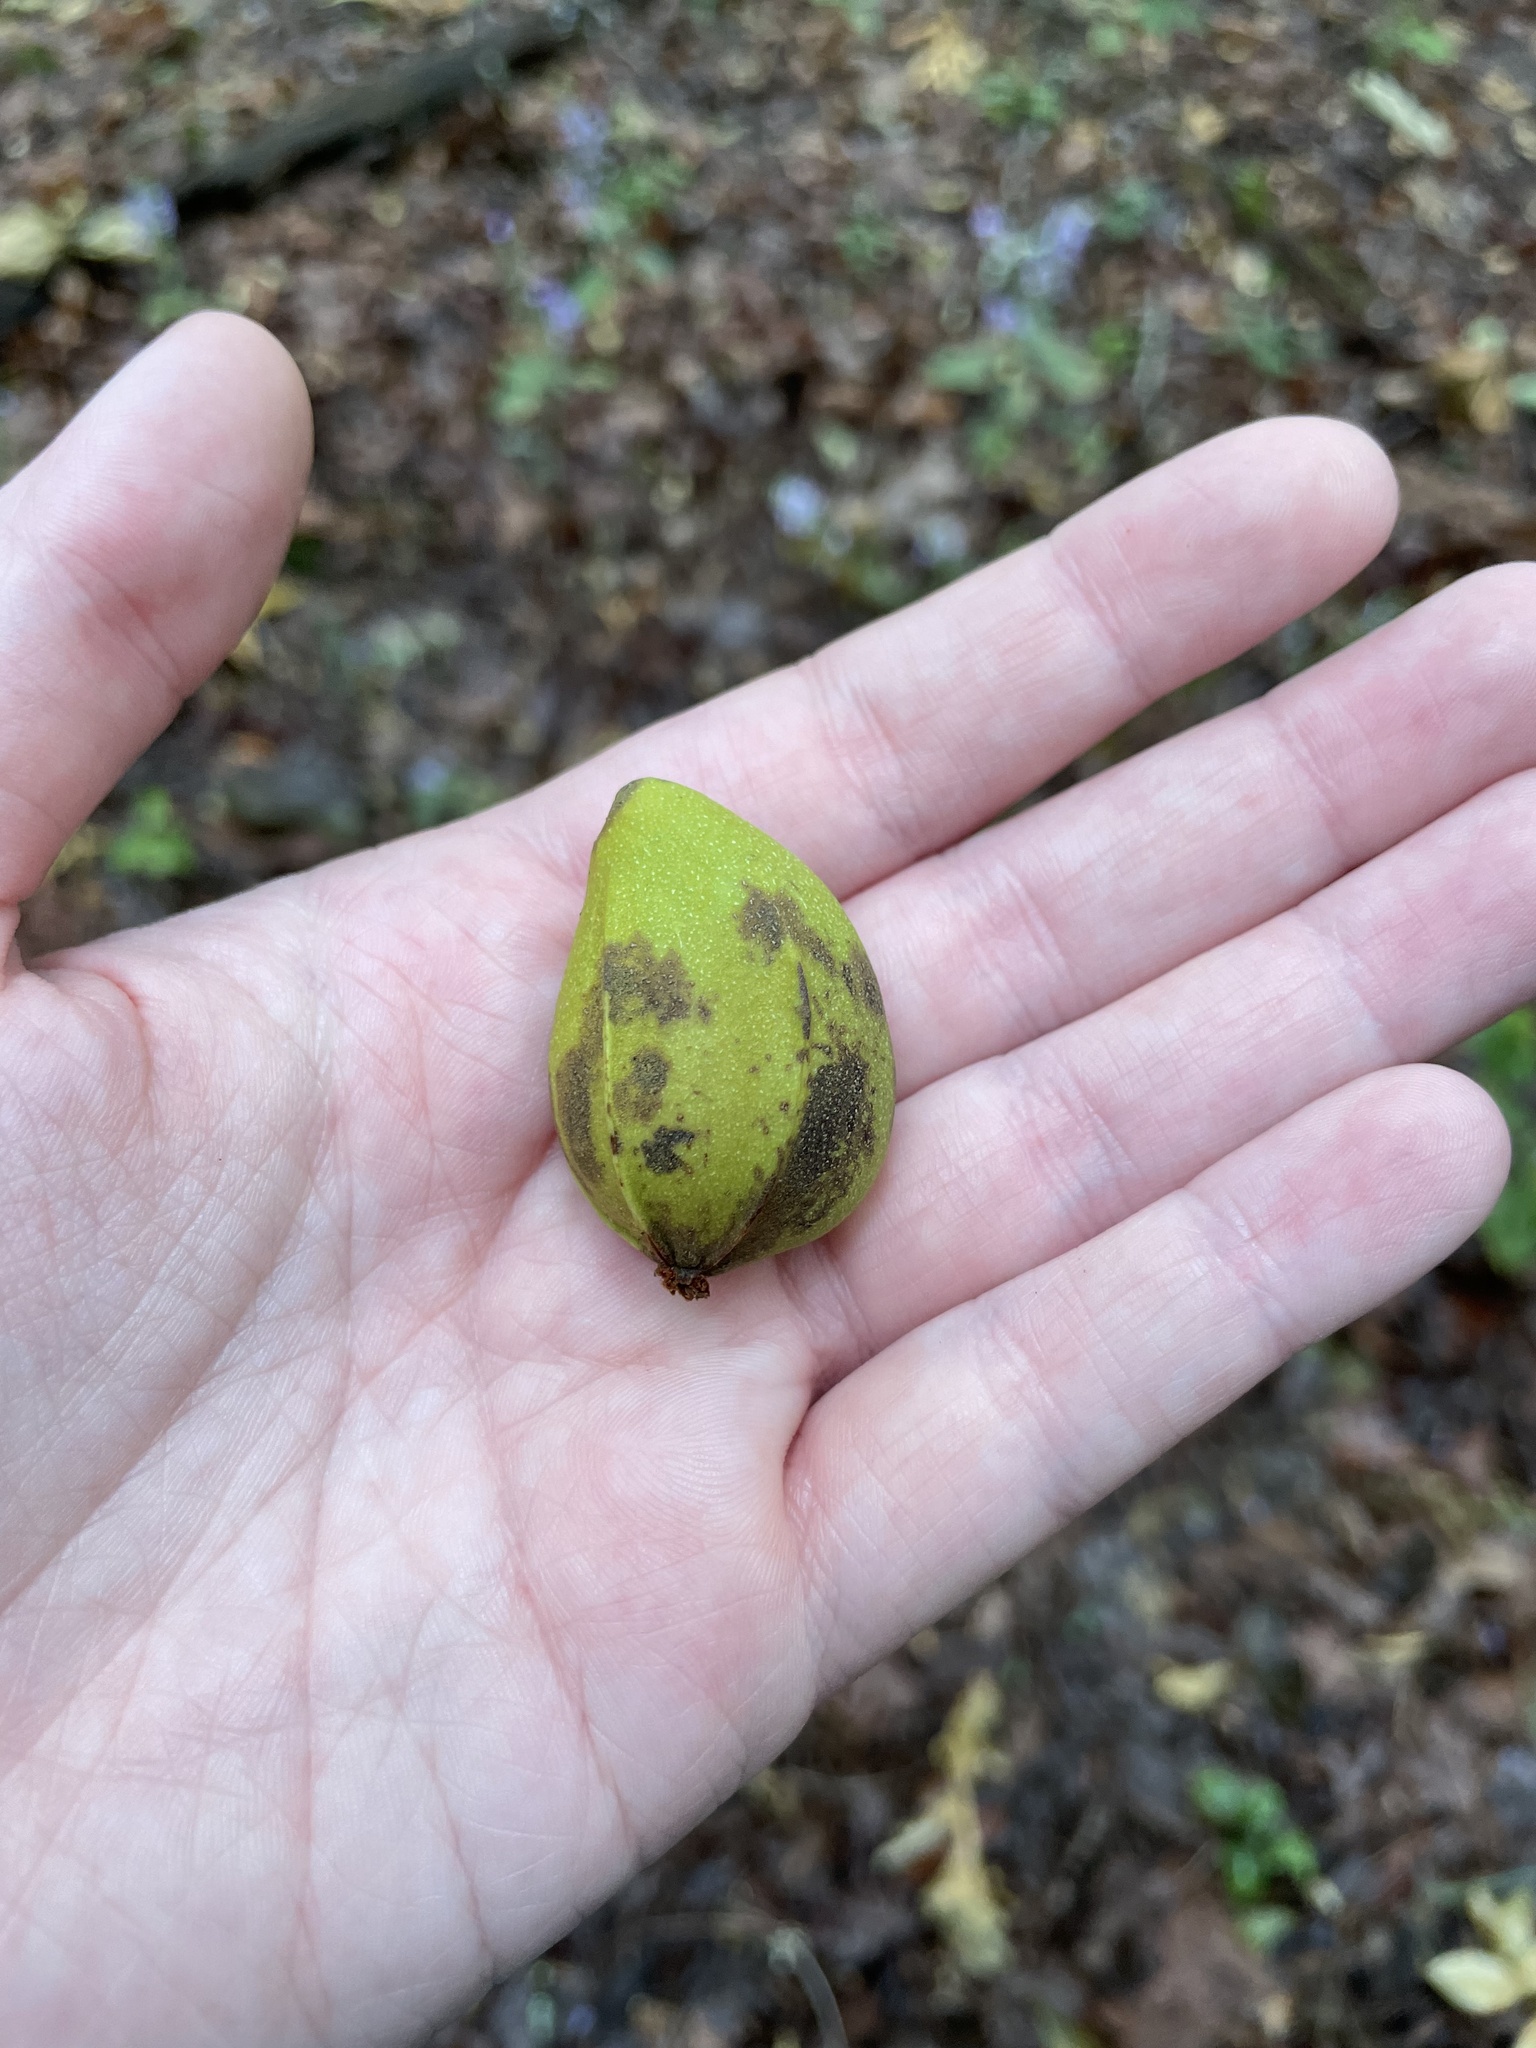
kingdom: Plantae
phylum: Tracheophyta
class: Magnoliopsida
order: Fagales
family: Juglandaceae
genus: Carya
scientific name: Carya illinoinensis
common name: Pecan
